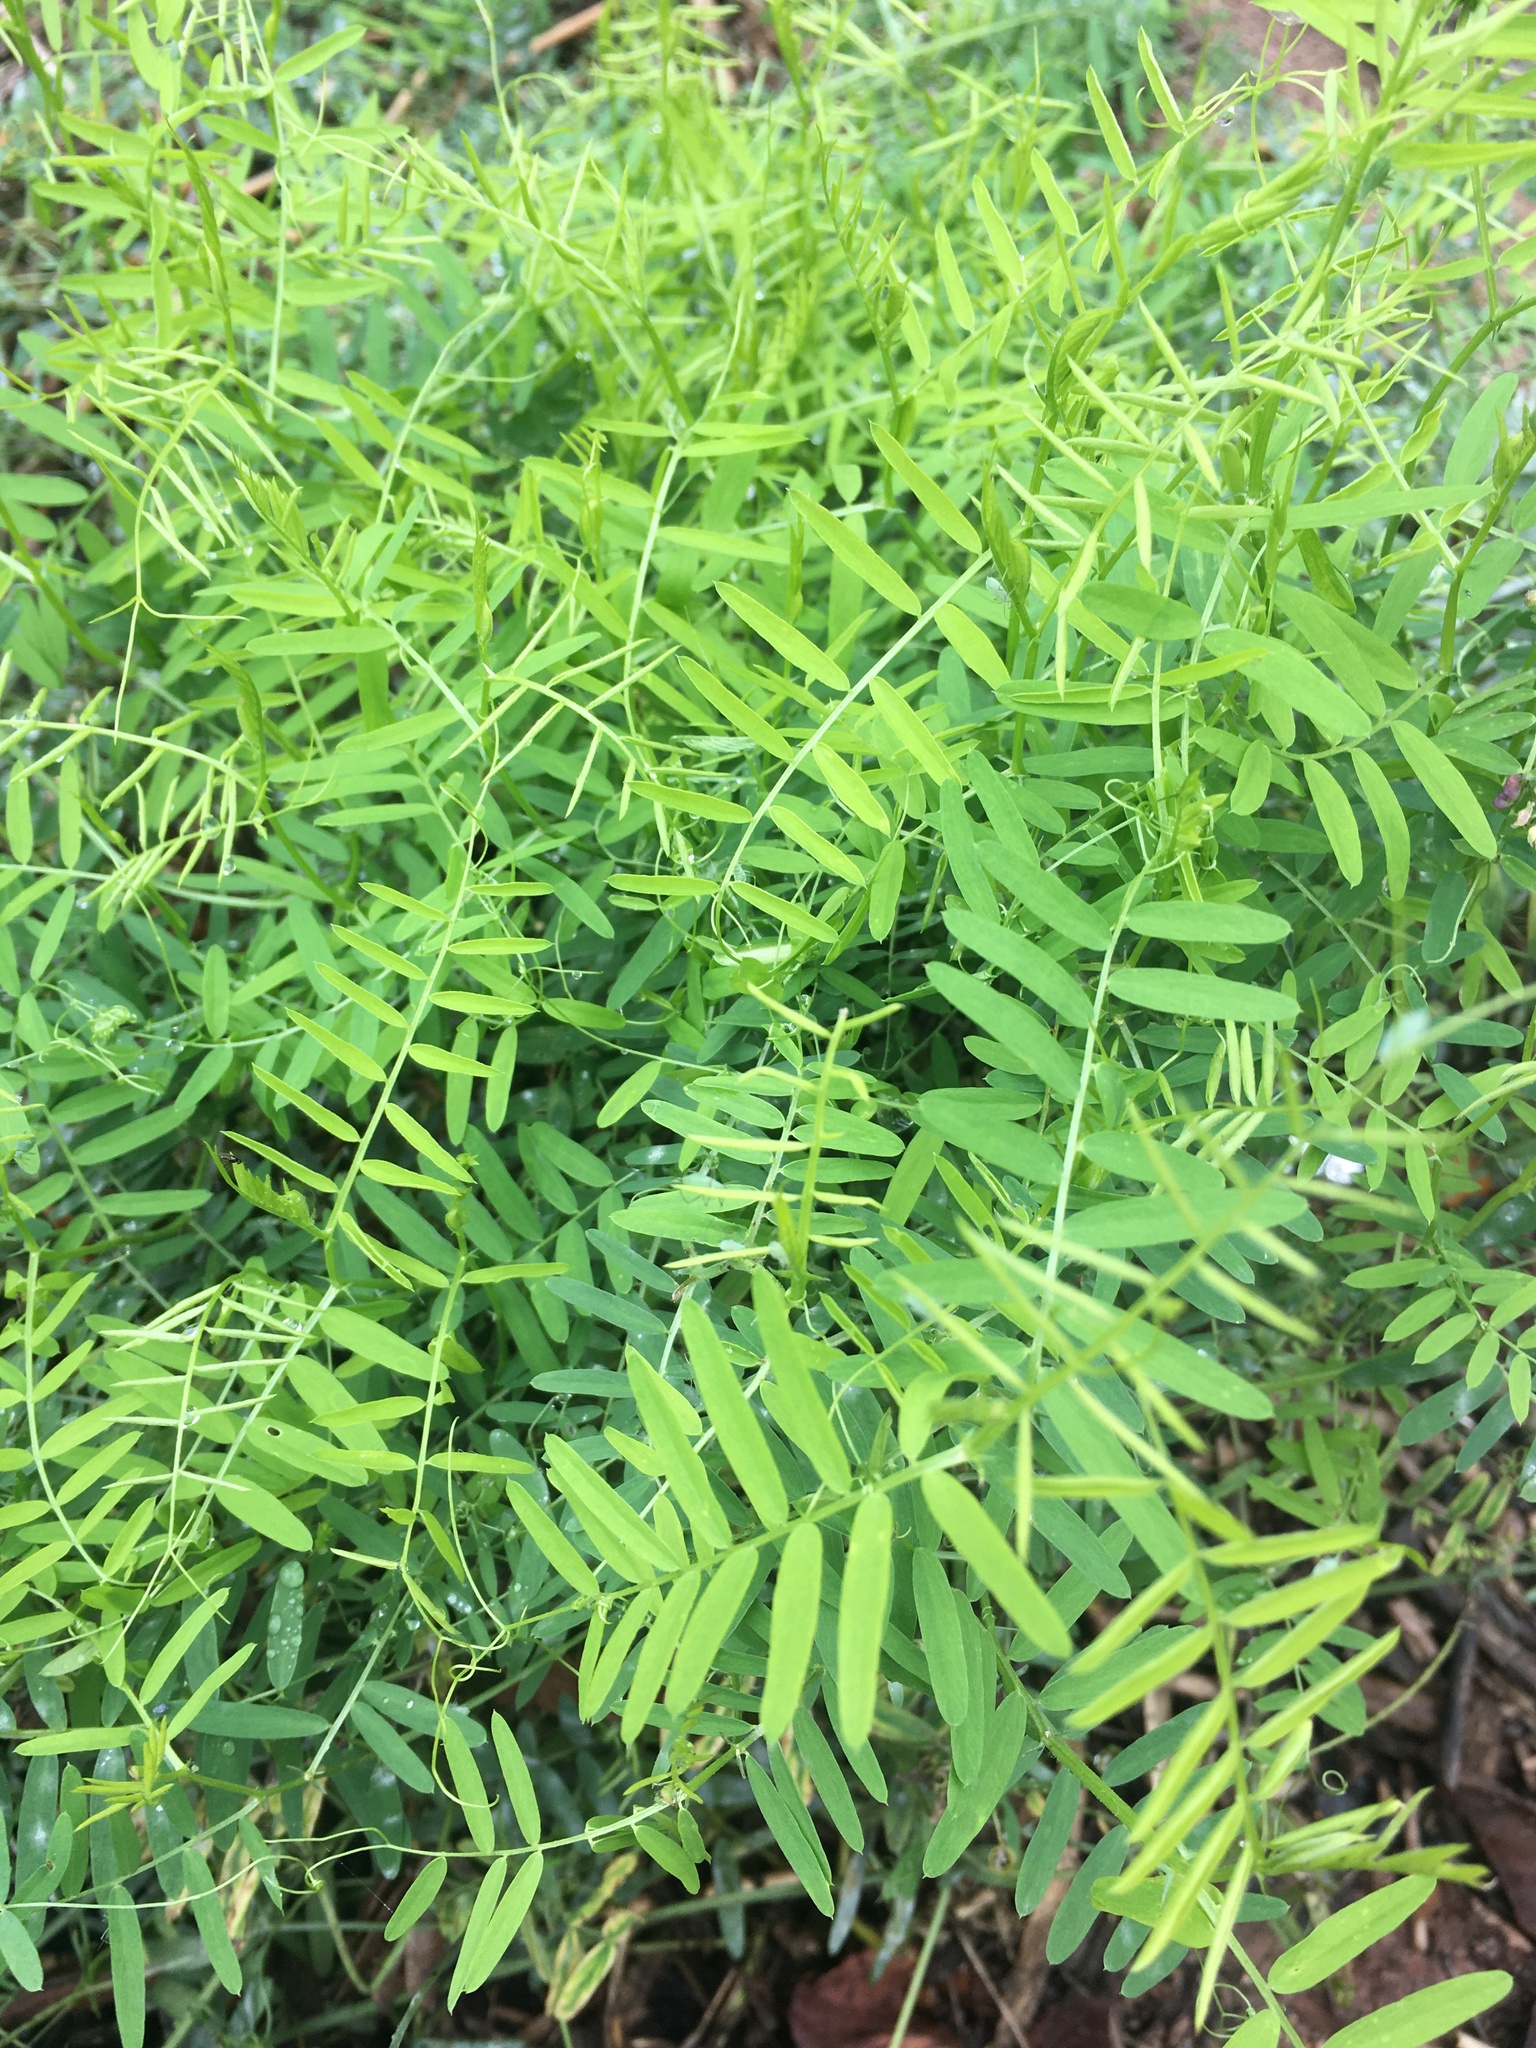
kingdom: Plantae
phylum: Tracheophyta
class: Magnoliopsida
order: Fabales
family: Fabaceae
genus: Vicia
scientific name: Vicia cracca
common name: Bird vetch
